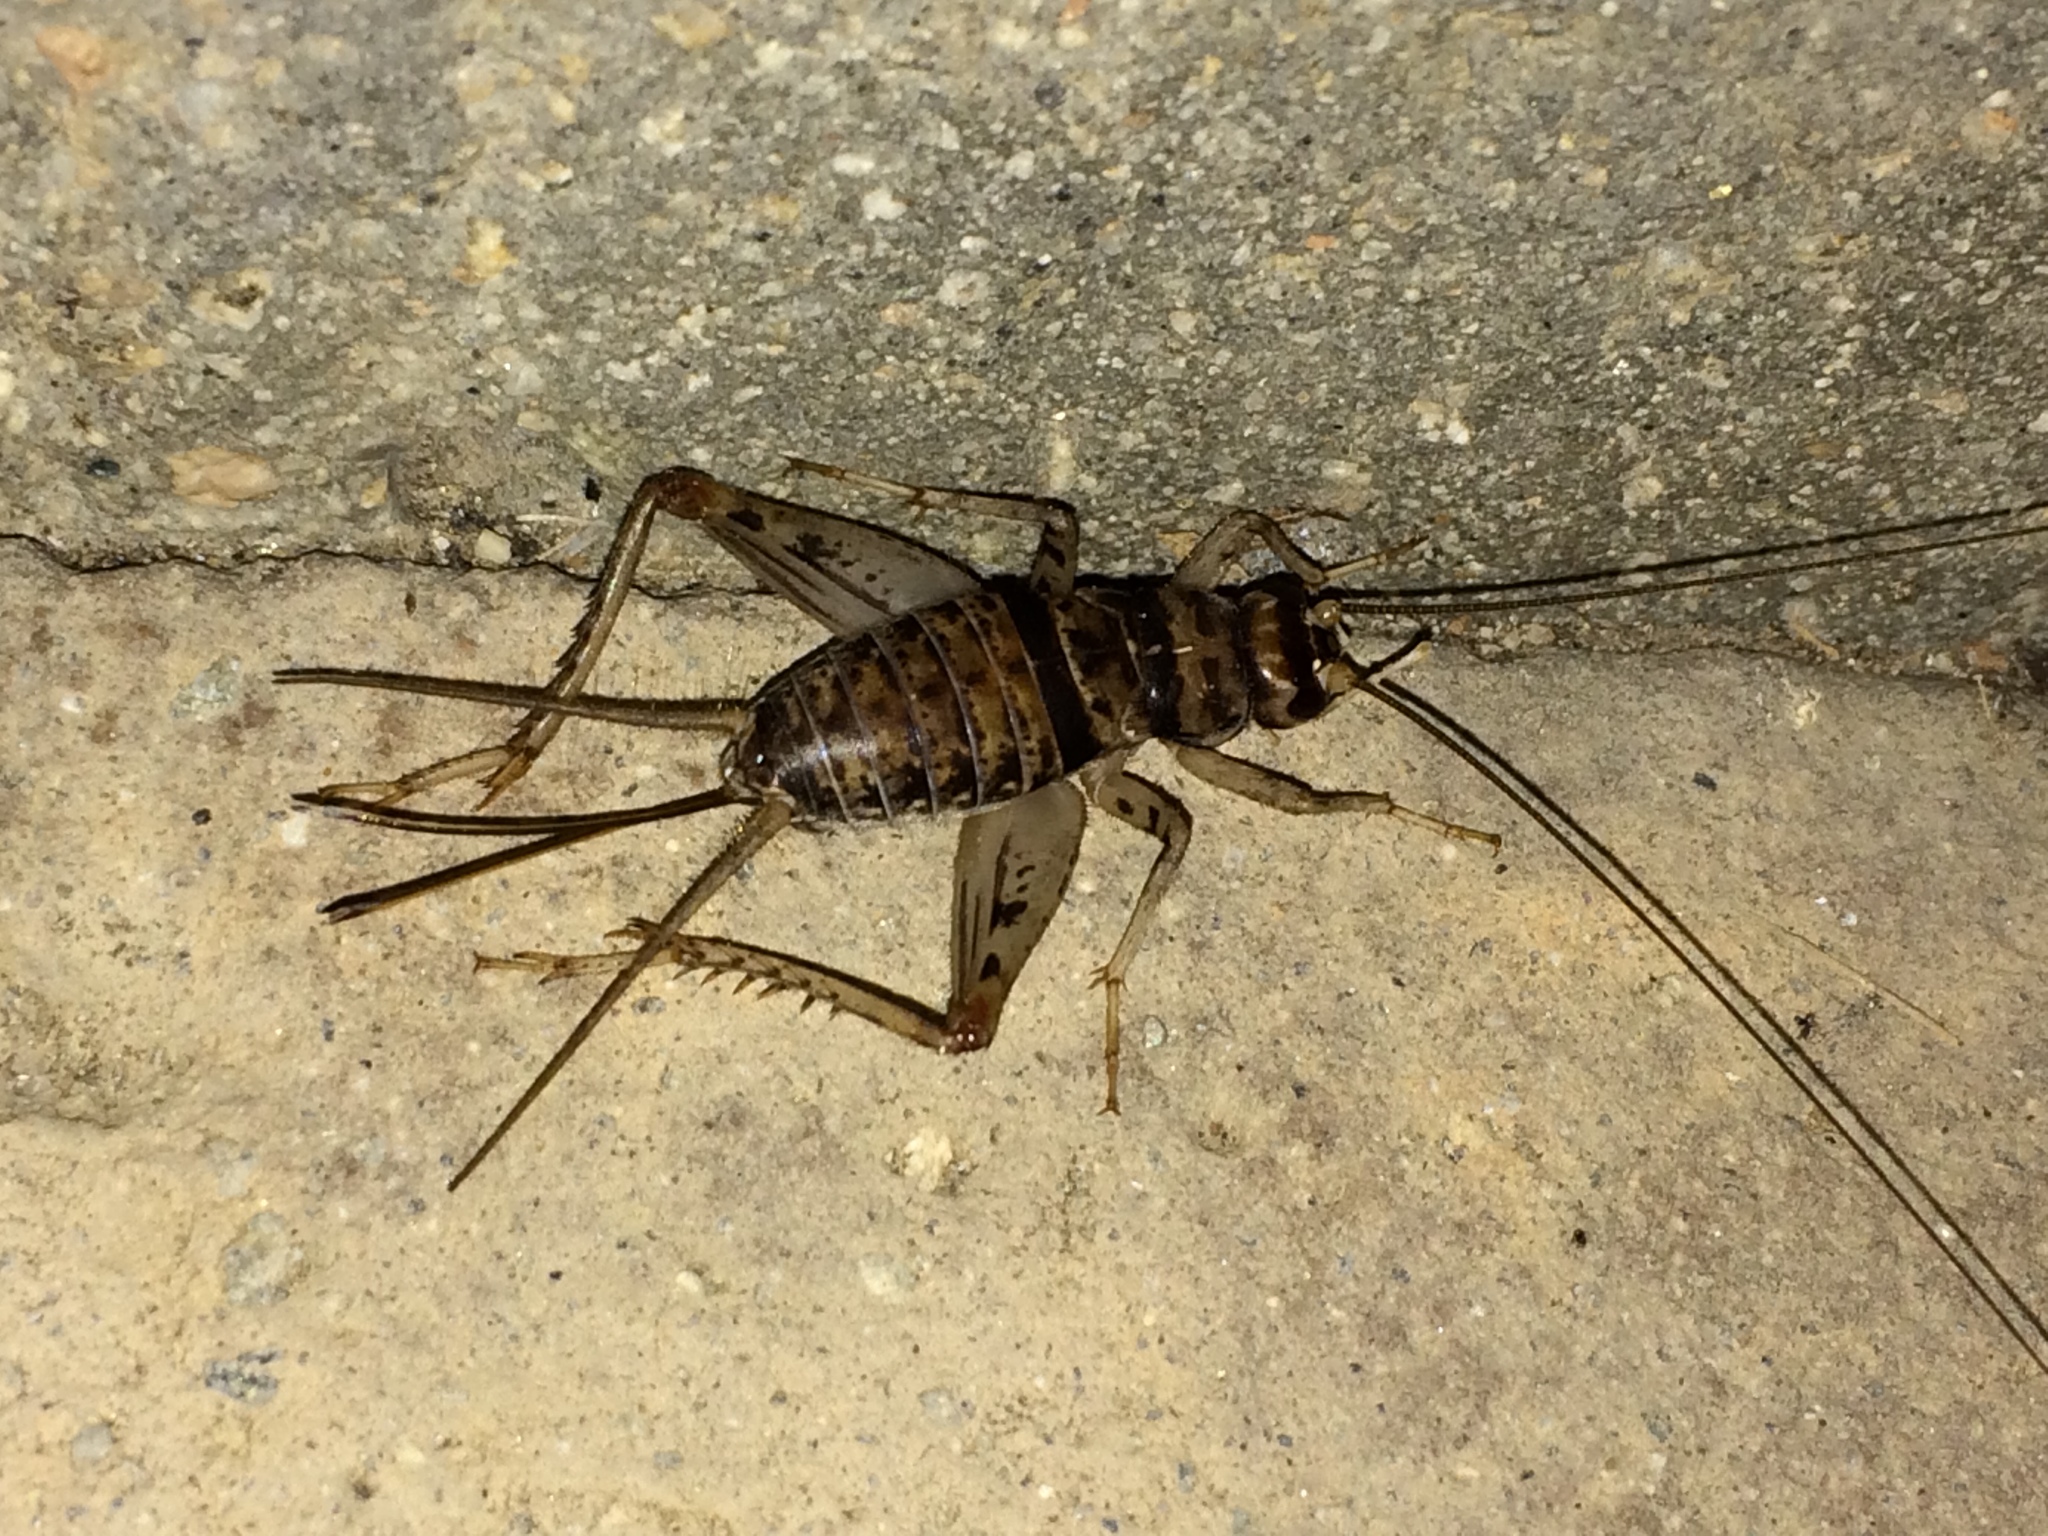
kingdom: Animalia
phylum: Arthropoda
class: Insecta
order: Orthoptera
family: Gryllidae
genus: Gryllodes
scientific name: Gryllodes sigillatus
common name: Tropical house cricket
